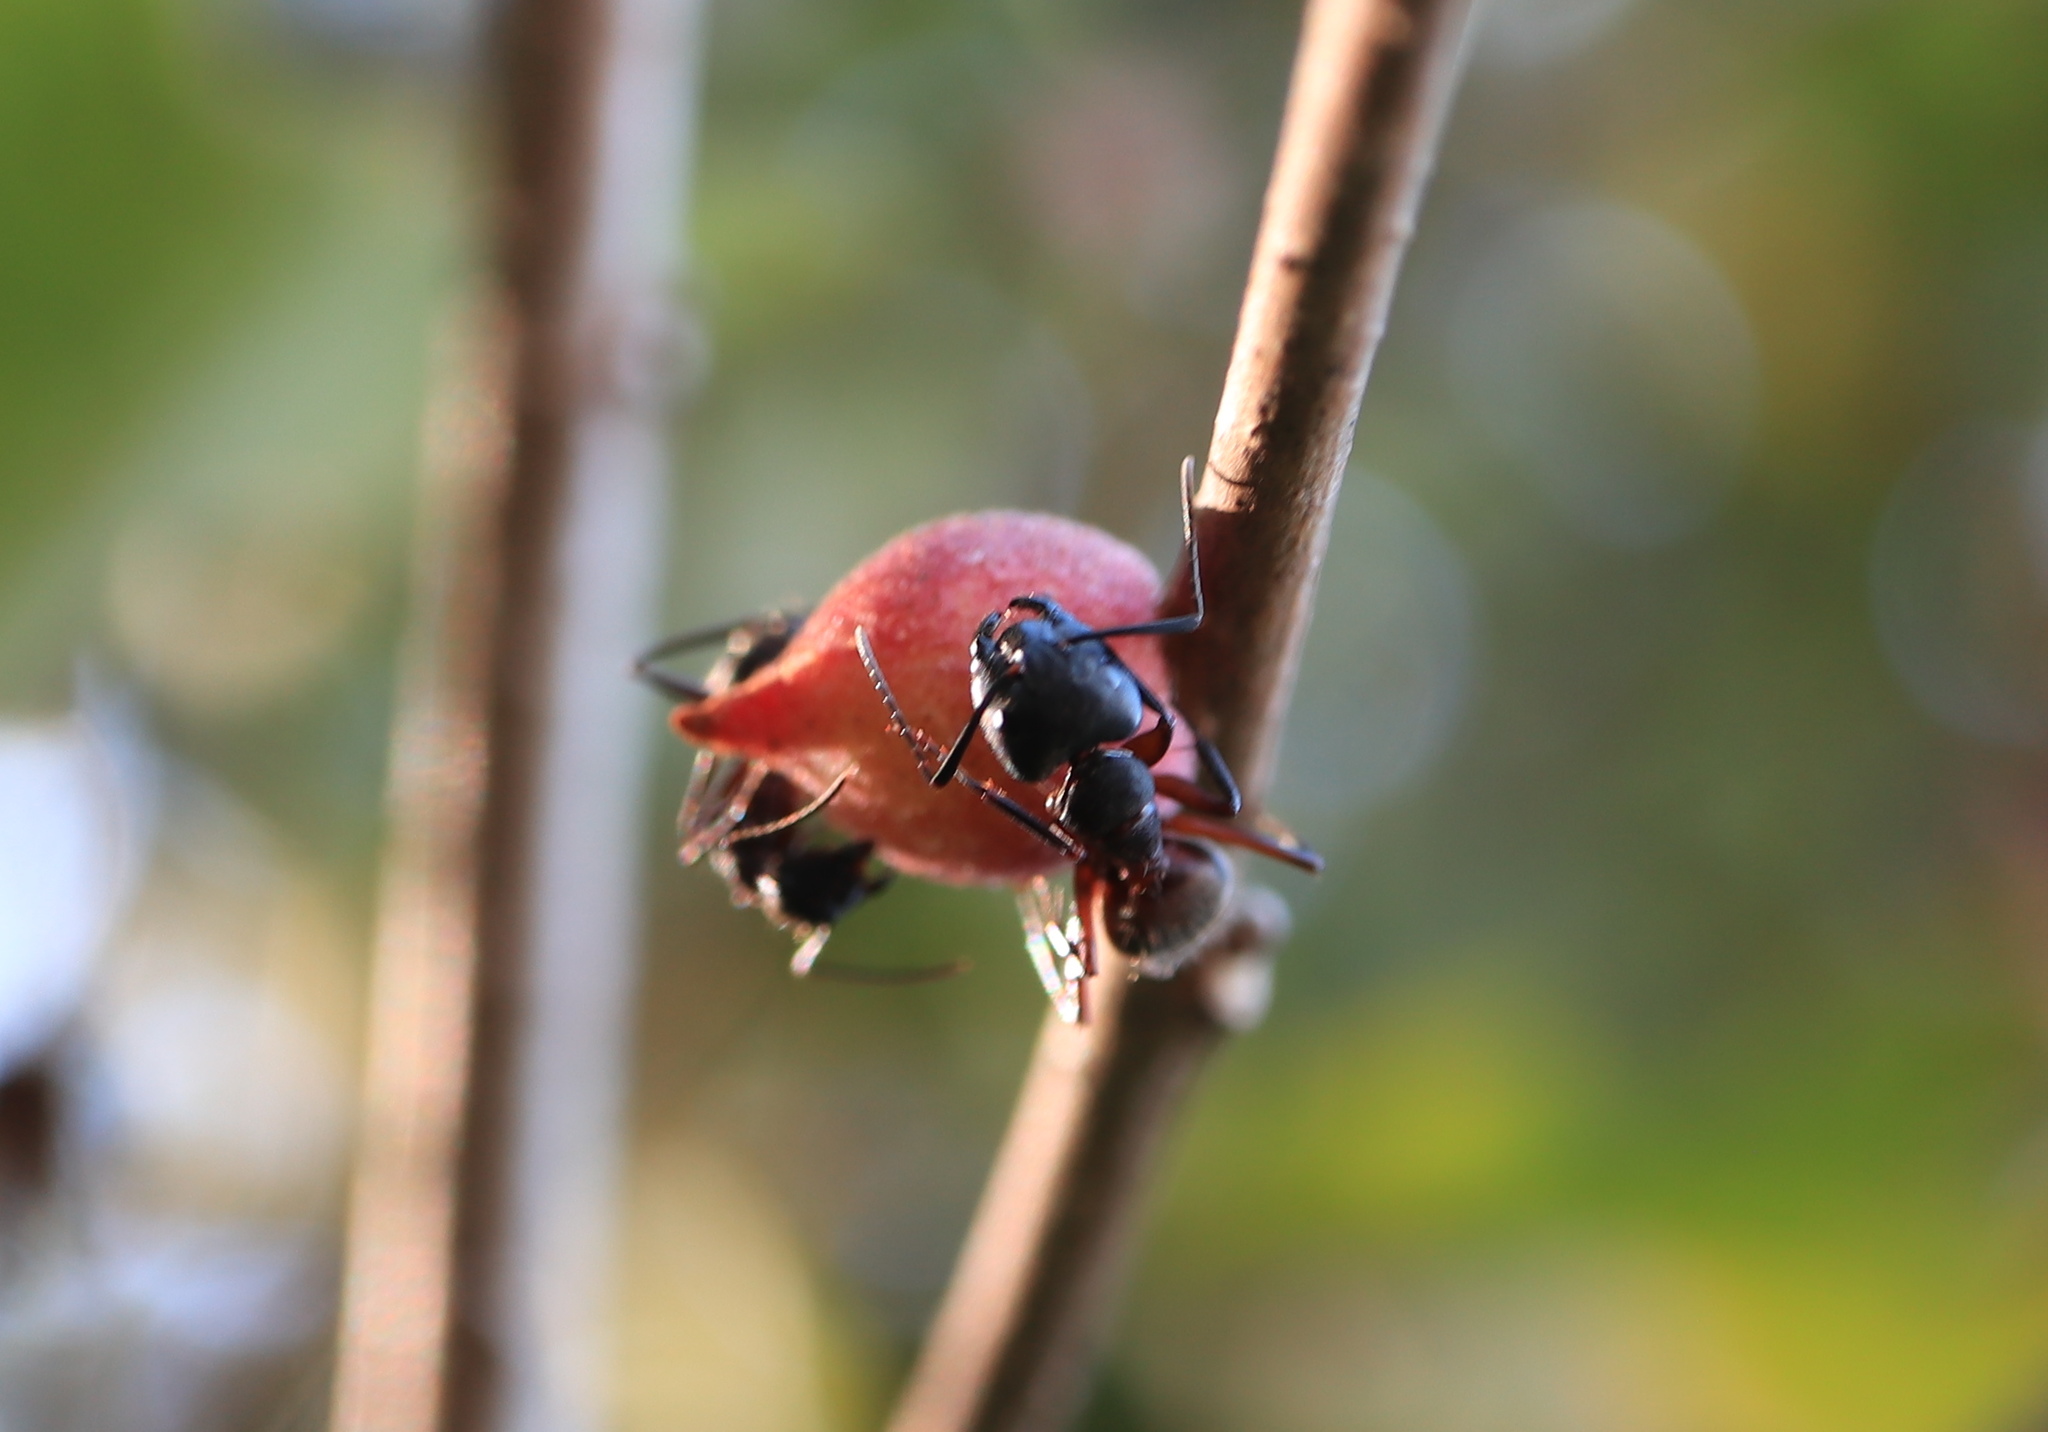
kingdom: Animalia
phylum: Arthropoda
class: Insecta
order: Hymenoptera
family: Cynipidae
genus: Disholcaspis
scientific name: Disholcaspis
